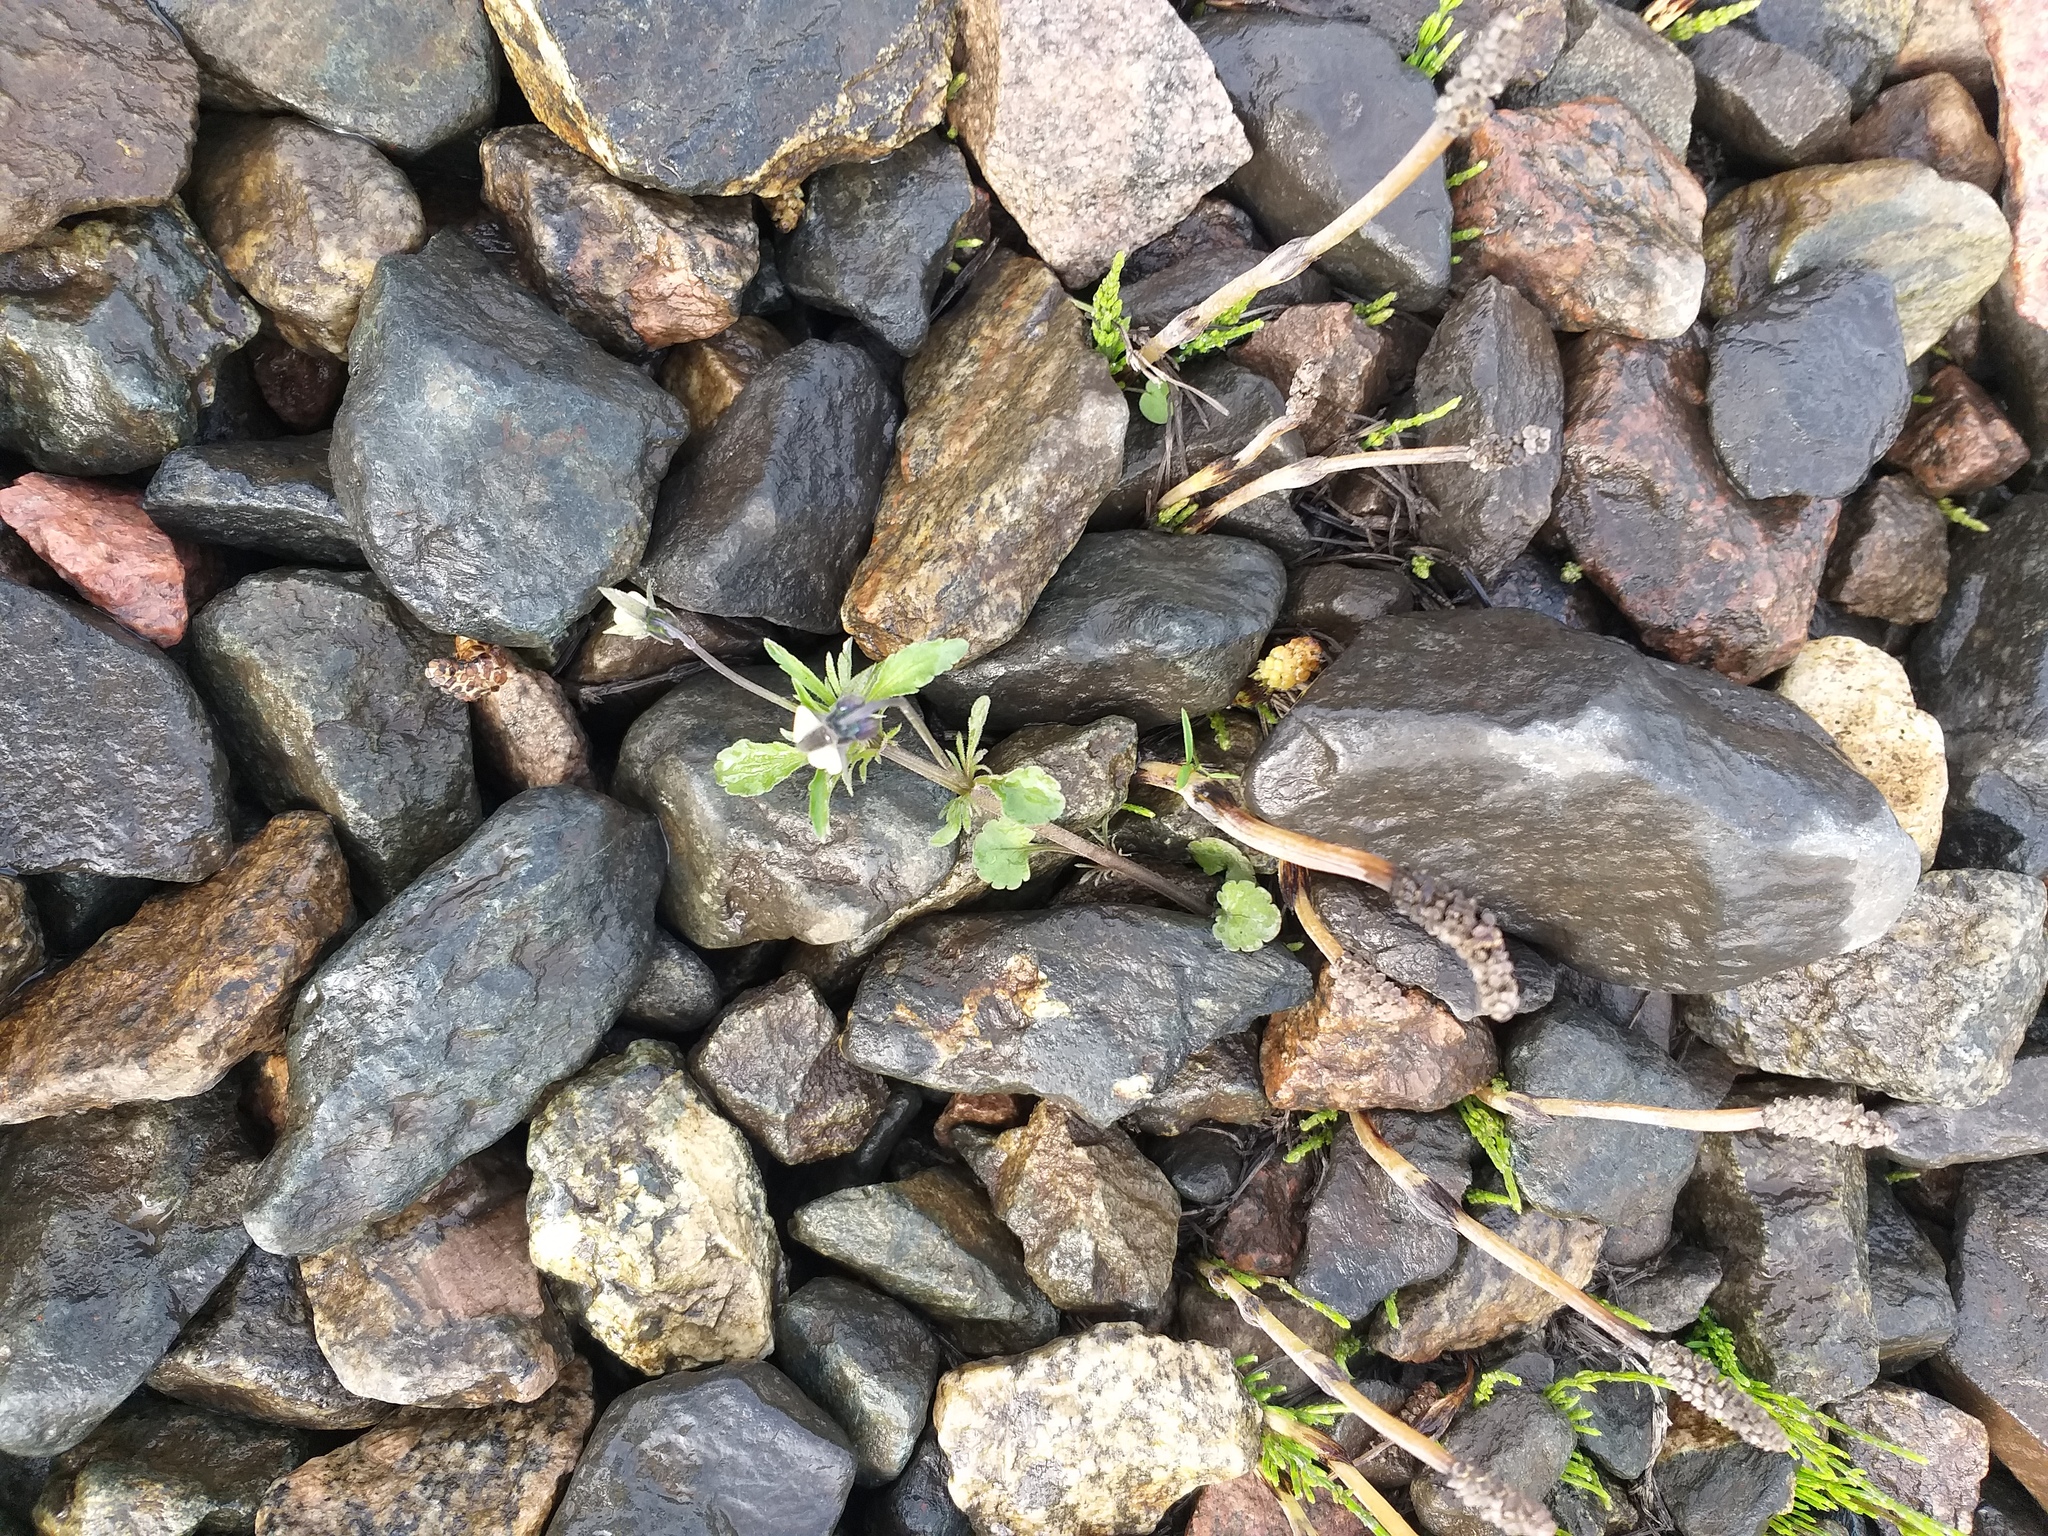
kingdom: Plantae
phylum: Tracheophyta
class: Magnoliopsida
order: Malpighiales
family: Violaceae
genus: Viola
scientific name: Viola arvensis
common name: Field pansy
